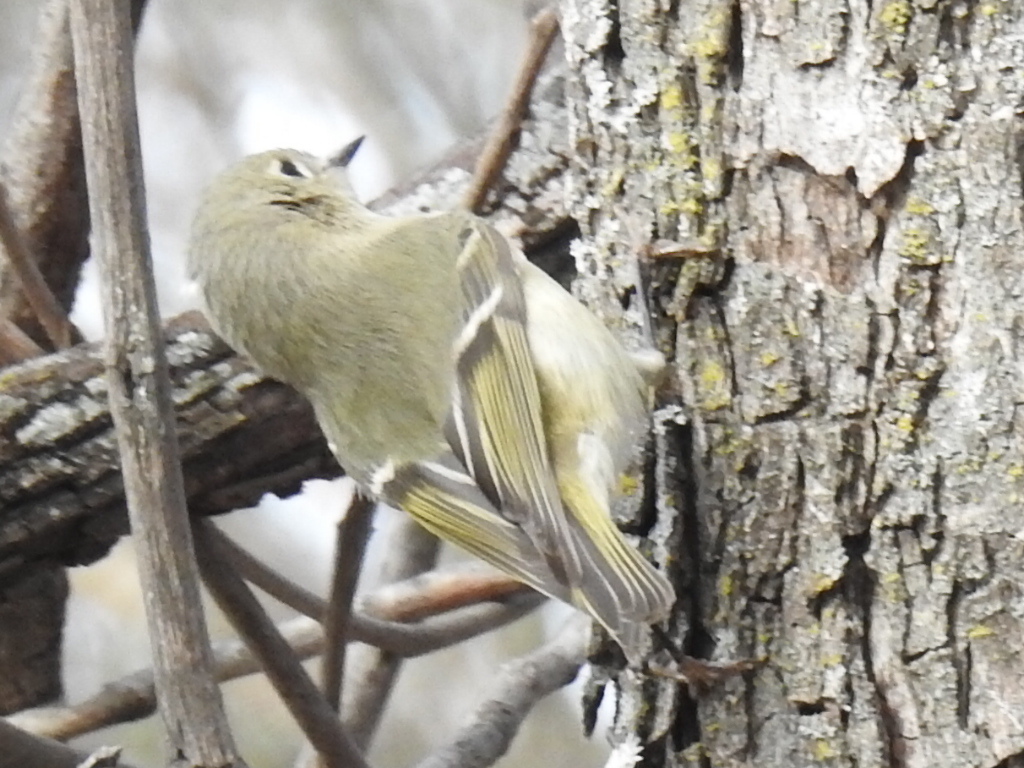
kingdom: Animalia
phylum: Chordata
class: Aves
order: Passeriformes
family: Regulidae
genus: Regulus
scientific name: Regulus calendula
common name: Ruby-crowned kinglet
